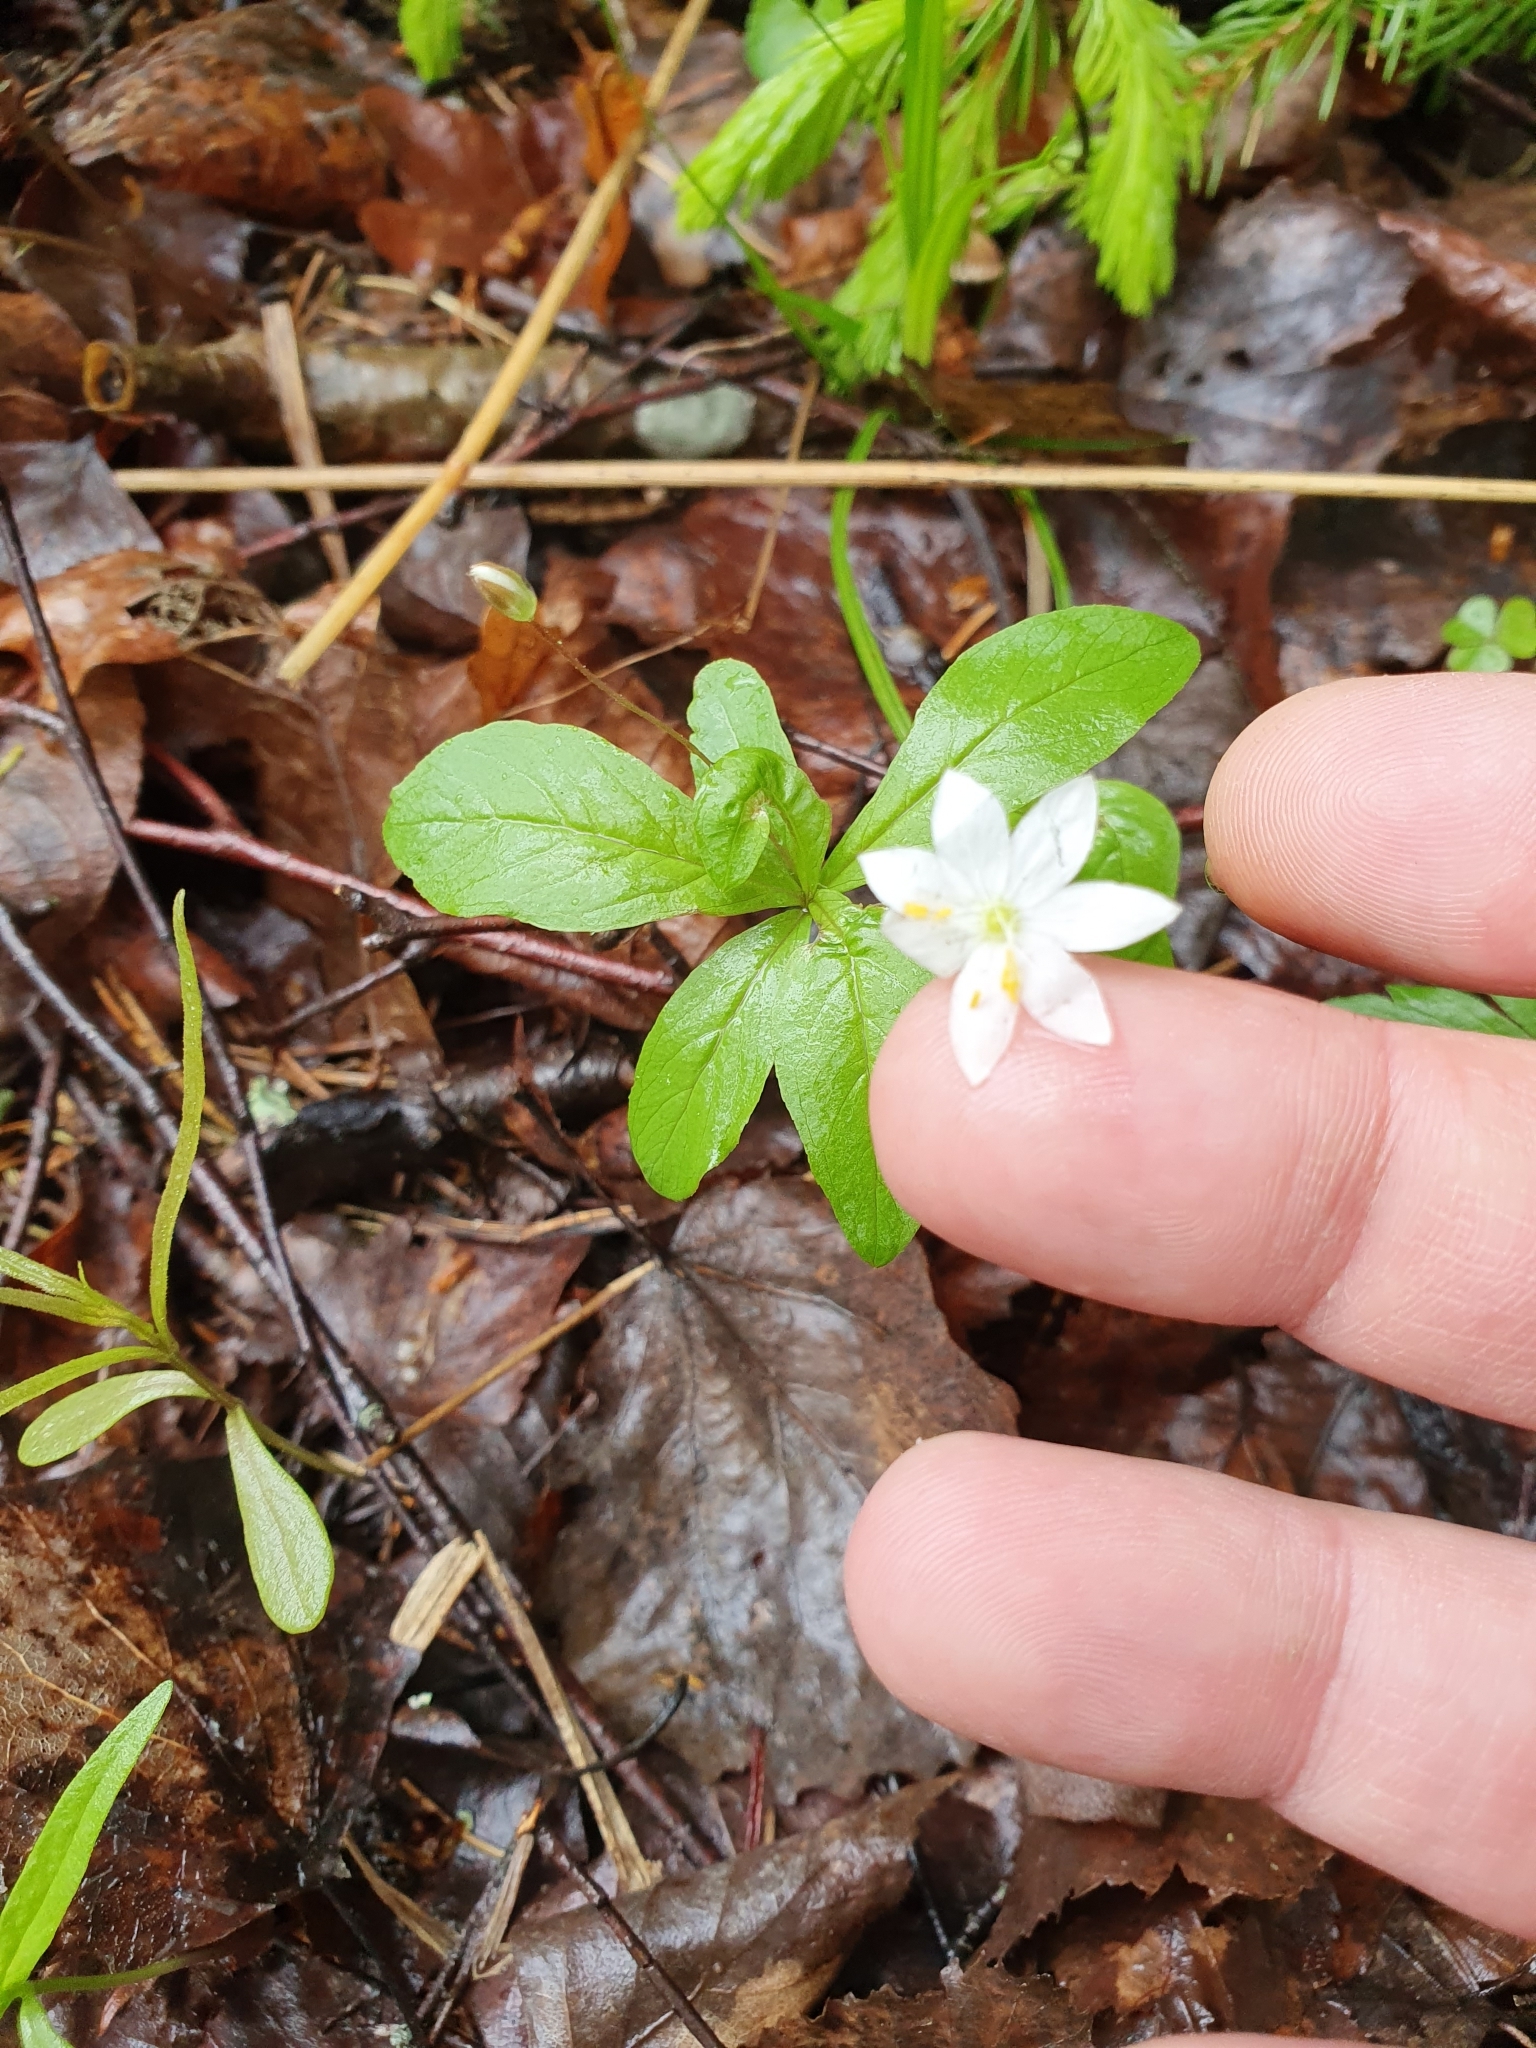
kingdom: Plantae
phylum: Tracheophyta
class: Magnoliopsida
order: Ericales
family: Primulaceae
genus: Lysimachia
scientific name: Lysimachia europaea
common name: Arctic starflower
